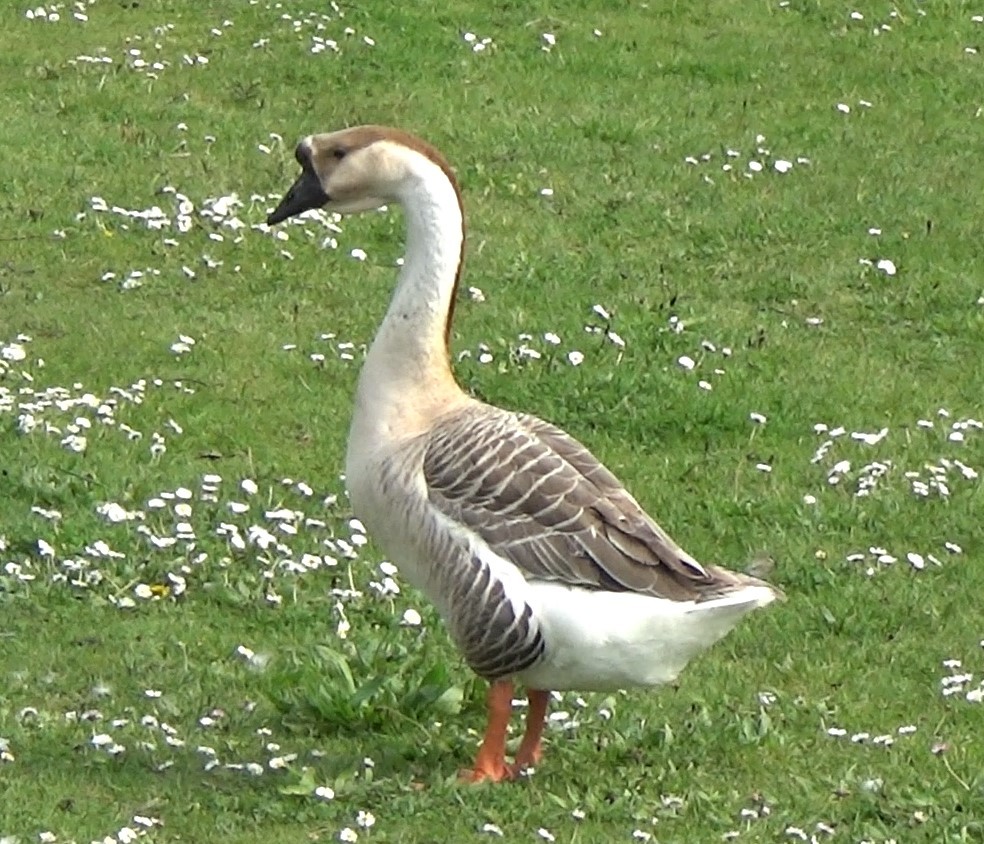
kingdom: Animalia
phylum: Chordata
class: Aves
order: Anseriformes
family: Anatidae
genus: Anser
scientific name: Anser cygnoides
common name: Swan goose
